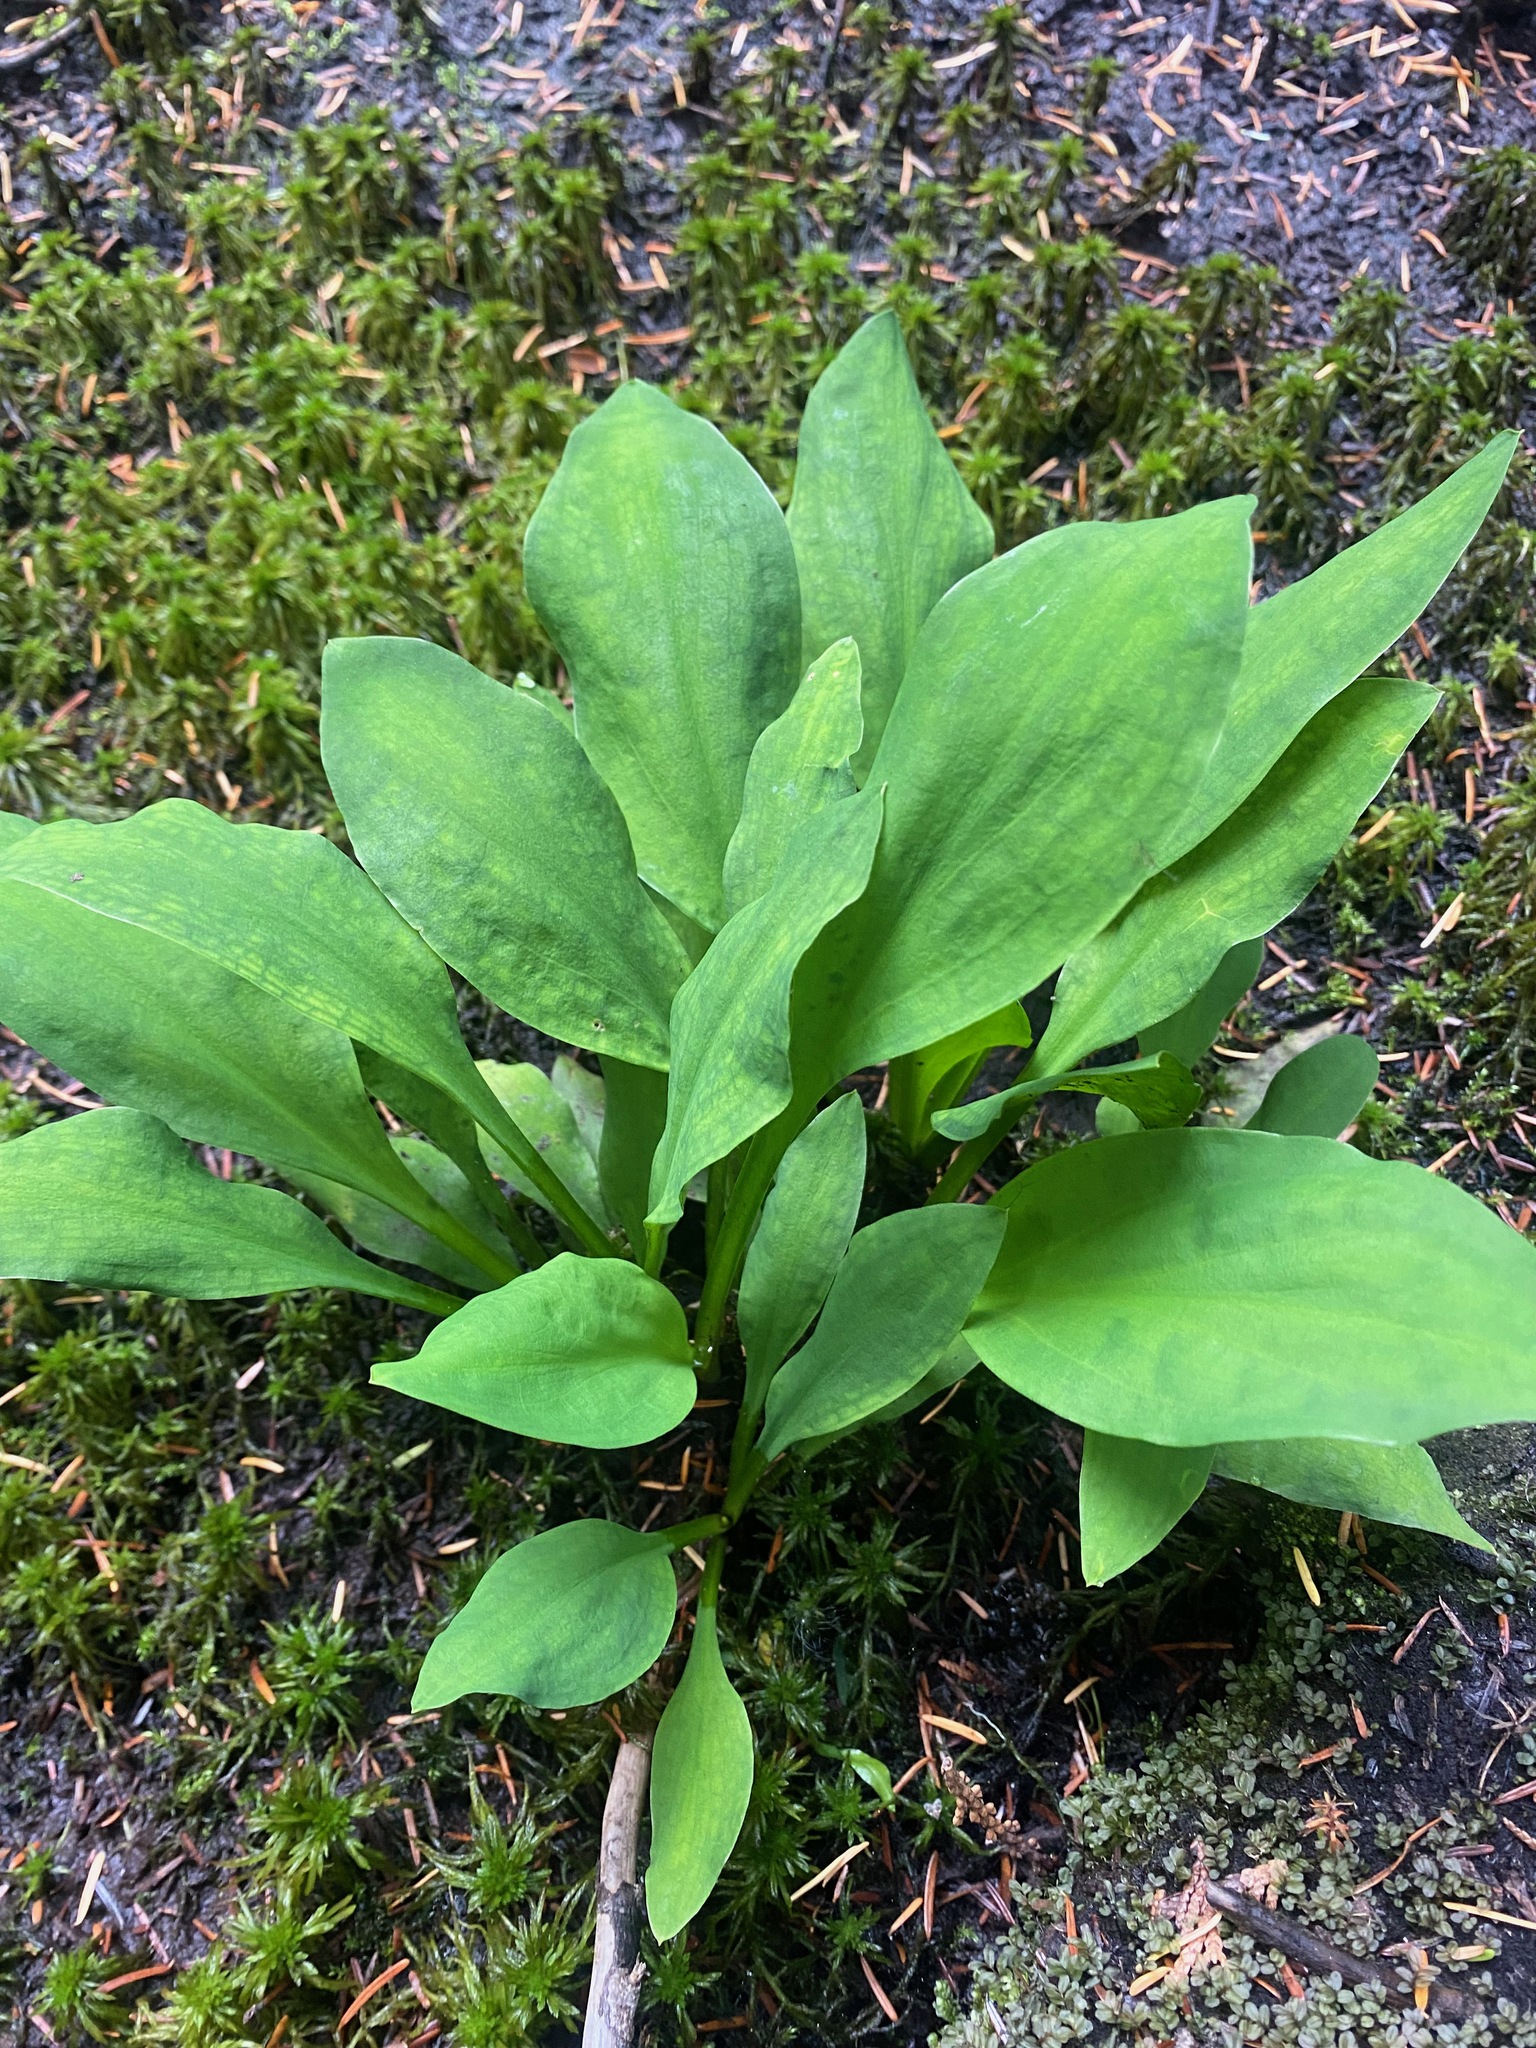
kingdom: Plantae
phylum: Tracheophyta
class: Liliopsida
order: Alismatales
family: Araceae
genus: Lysichiton
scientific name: Lysichiton americanus
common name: American skunk cabbage
